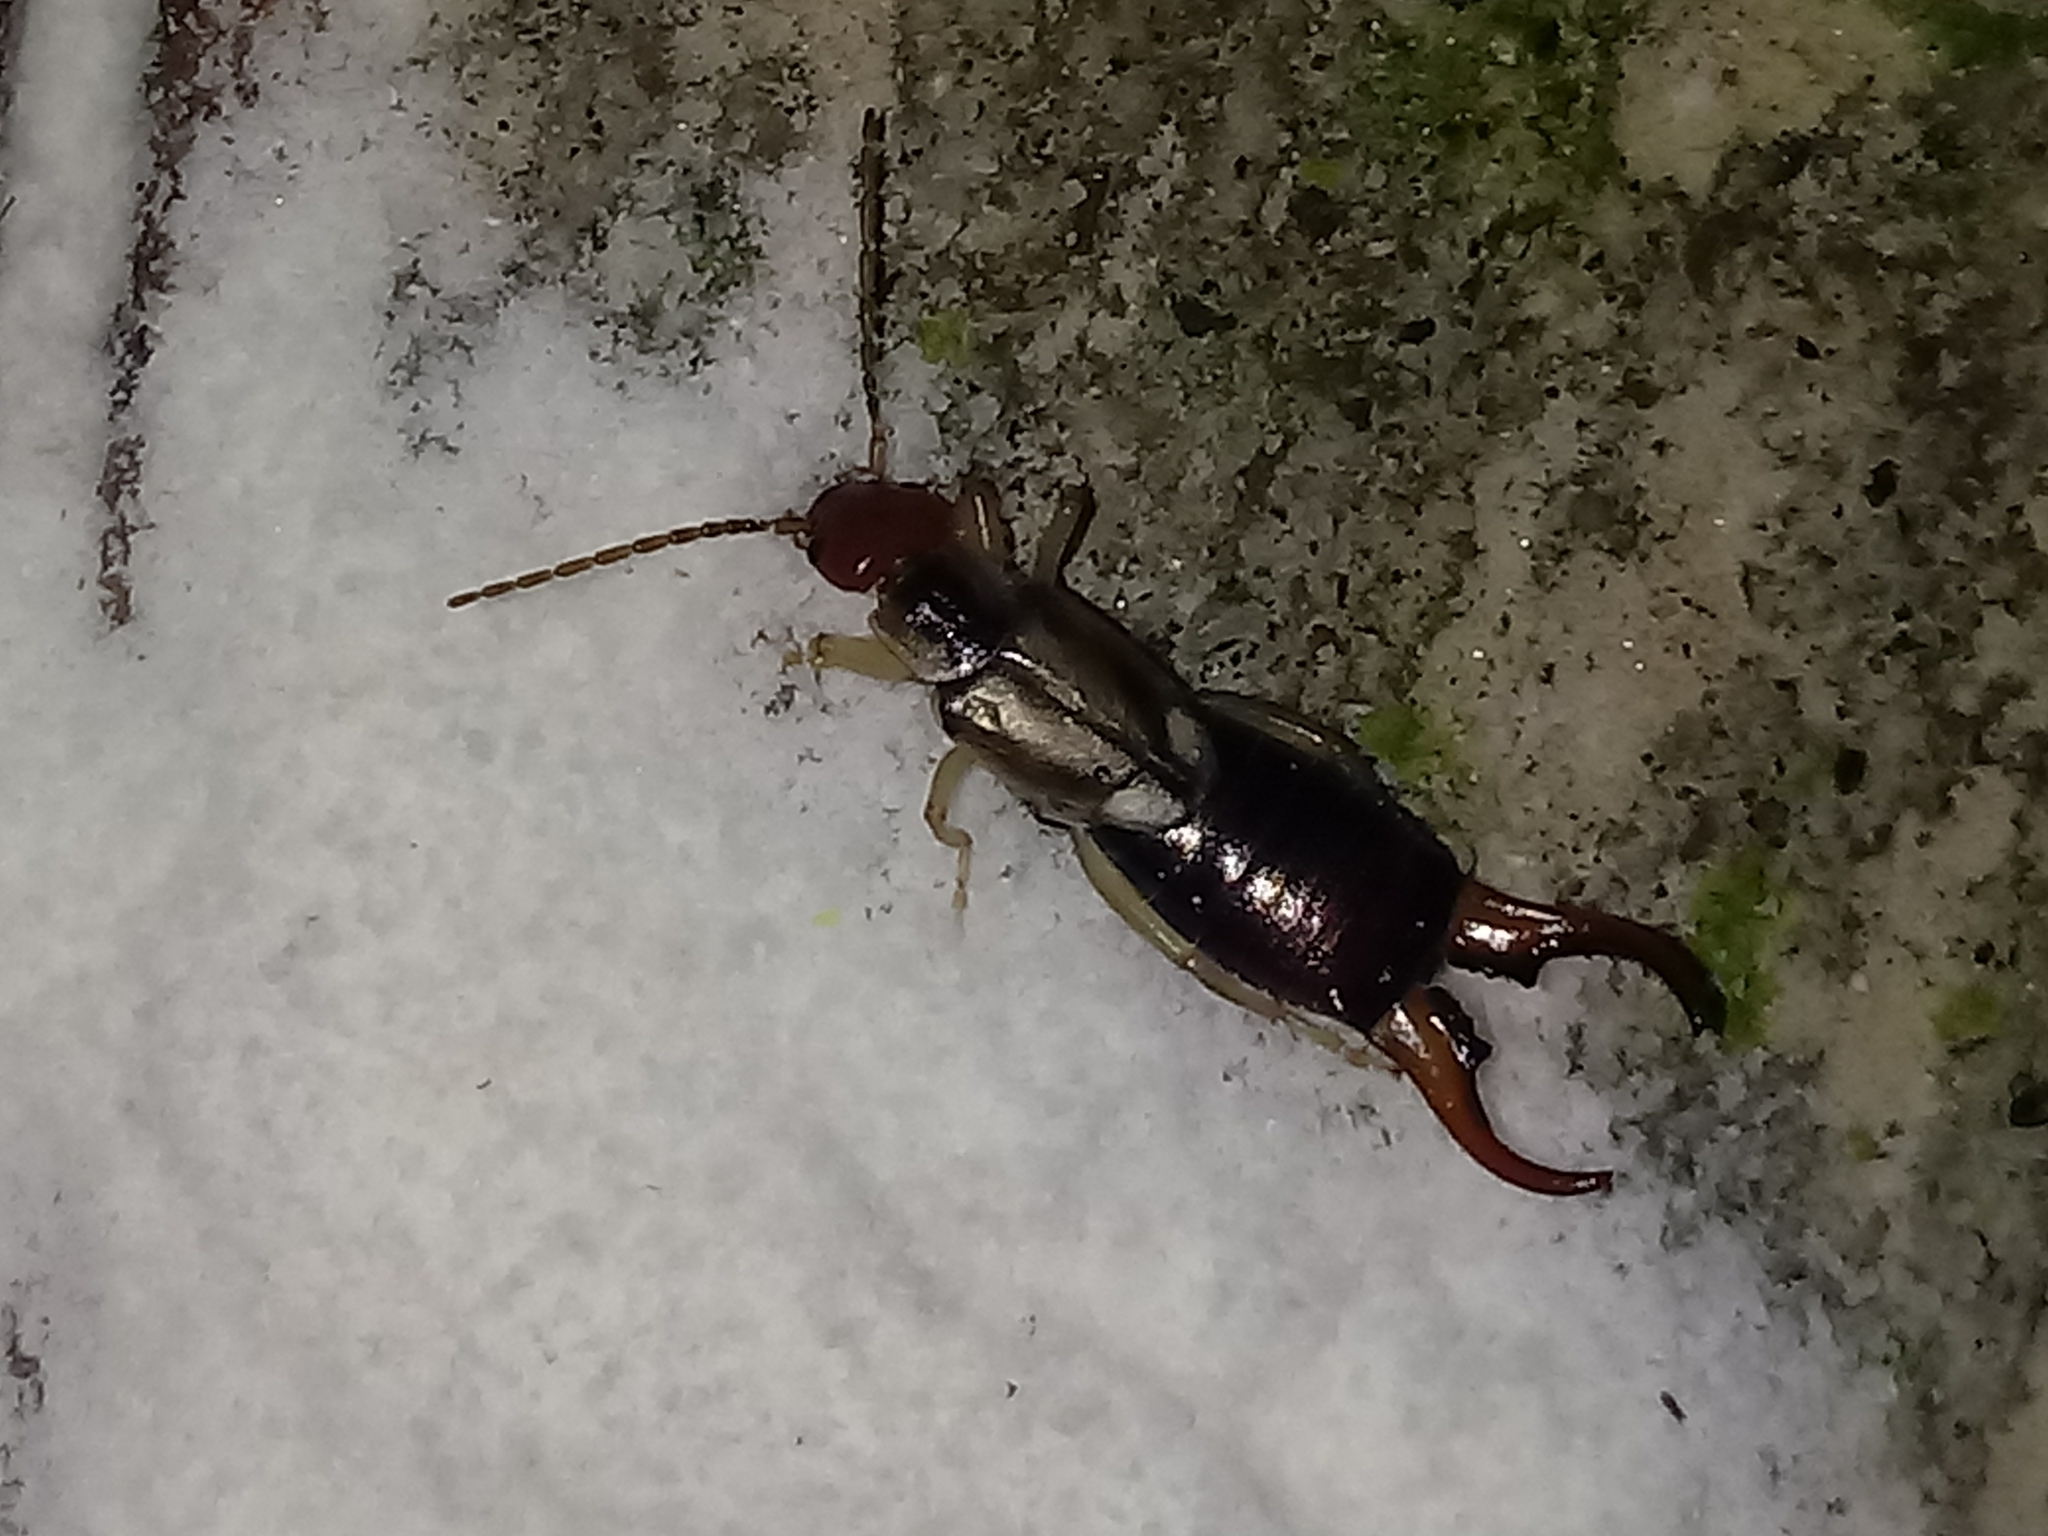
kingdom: Animalia
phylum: Arthropoda
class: Insecta
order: Dermaptera
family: Forficulidae
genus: Forficula
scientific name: Forficula
